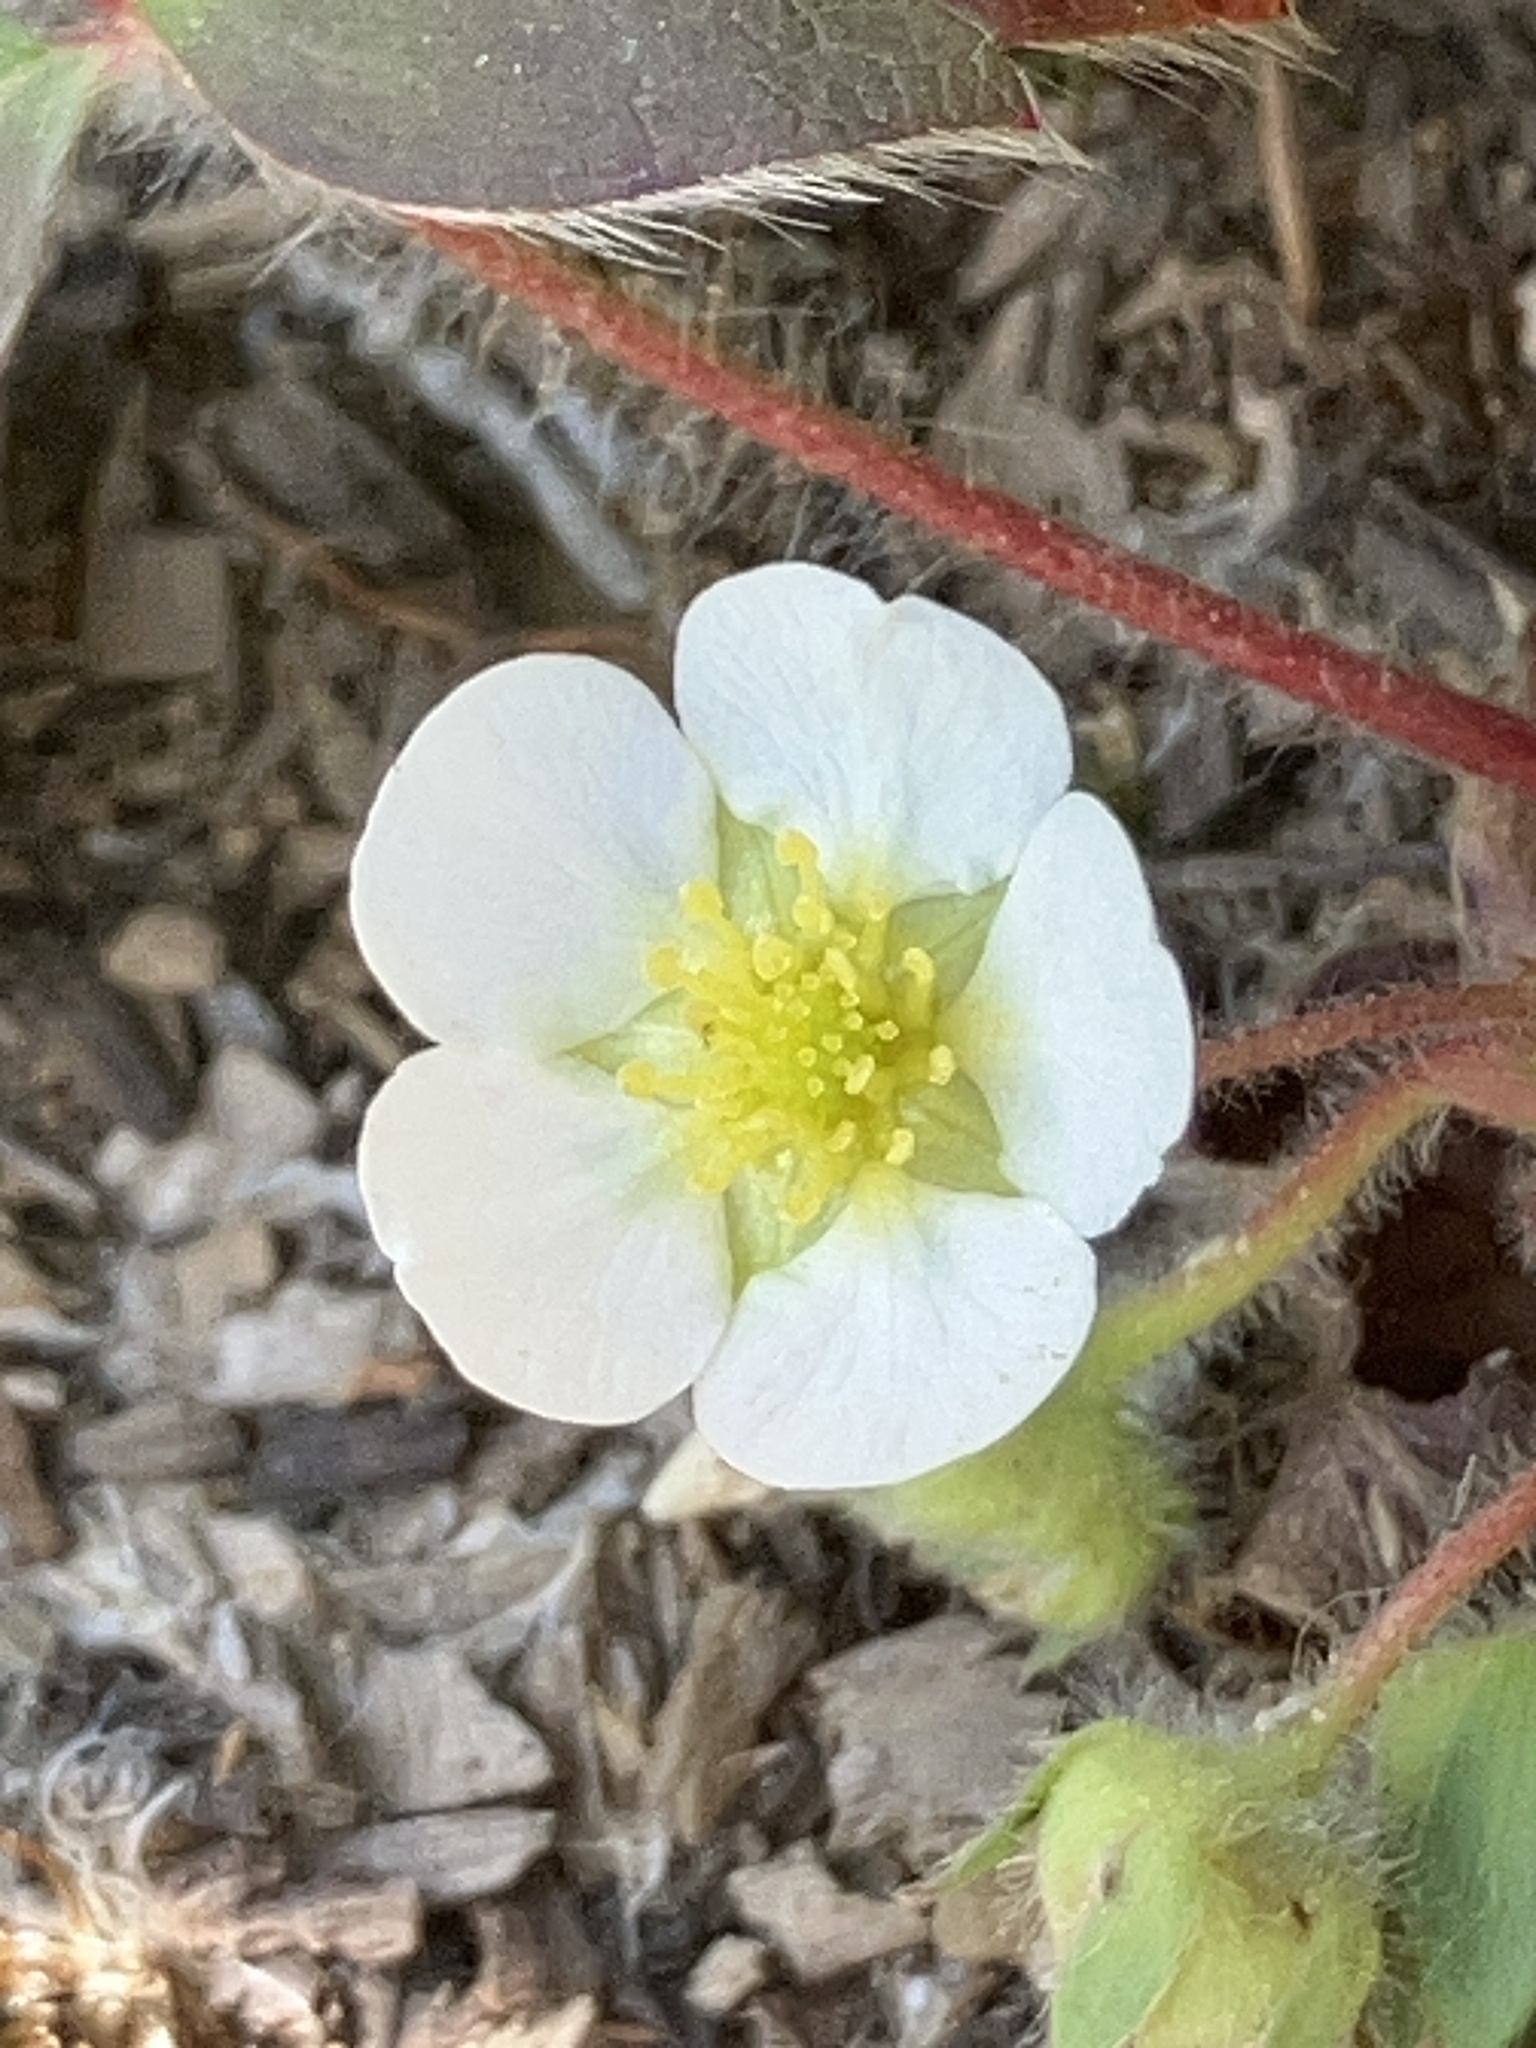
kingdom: Plantae
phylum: Tracheophyta
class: Magnoliopsida
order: Rosales
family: Rosaceae
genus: Fragaria
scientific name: Fragaria virginiana
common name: Thickleaved wild strawberry
